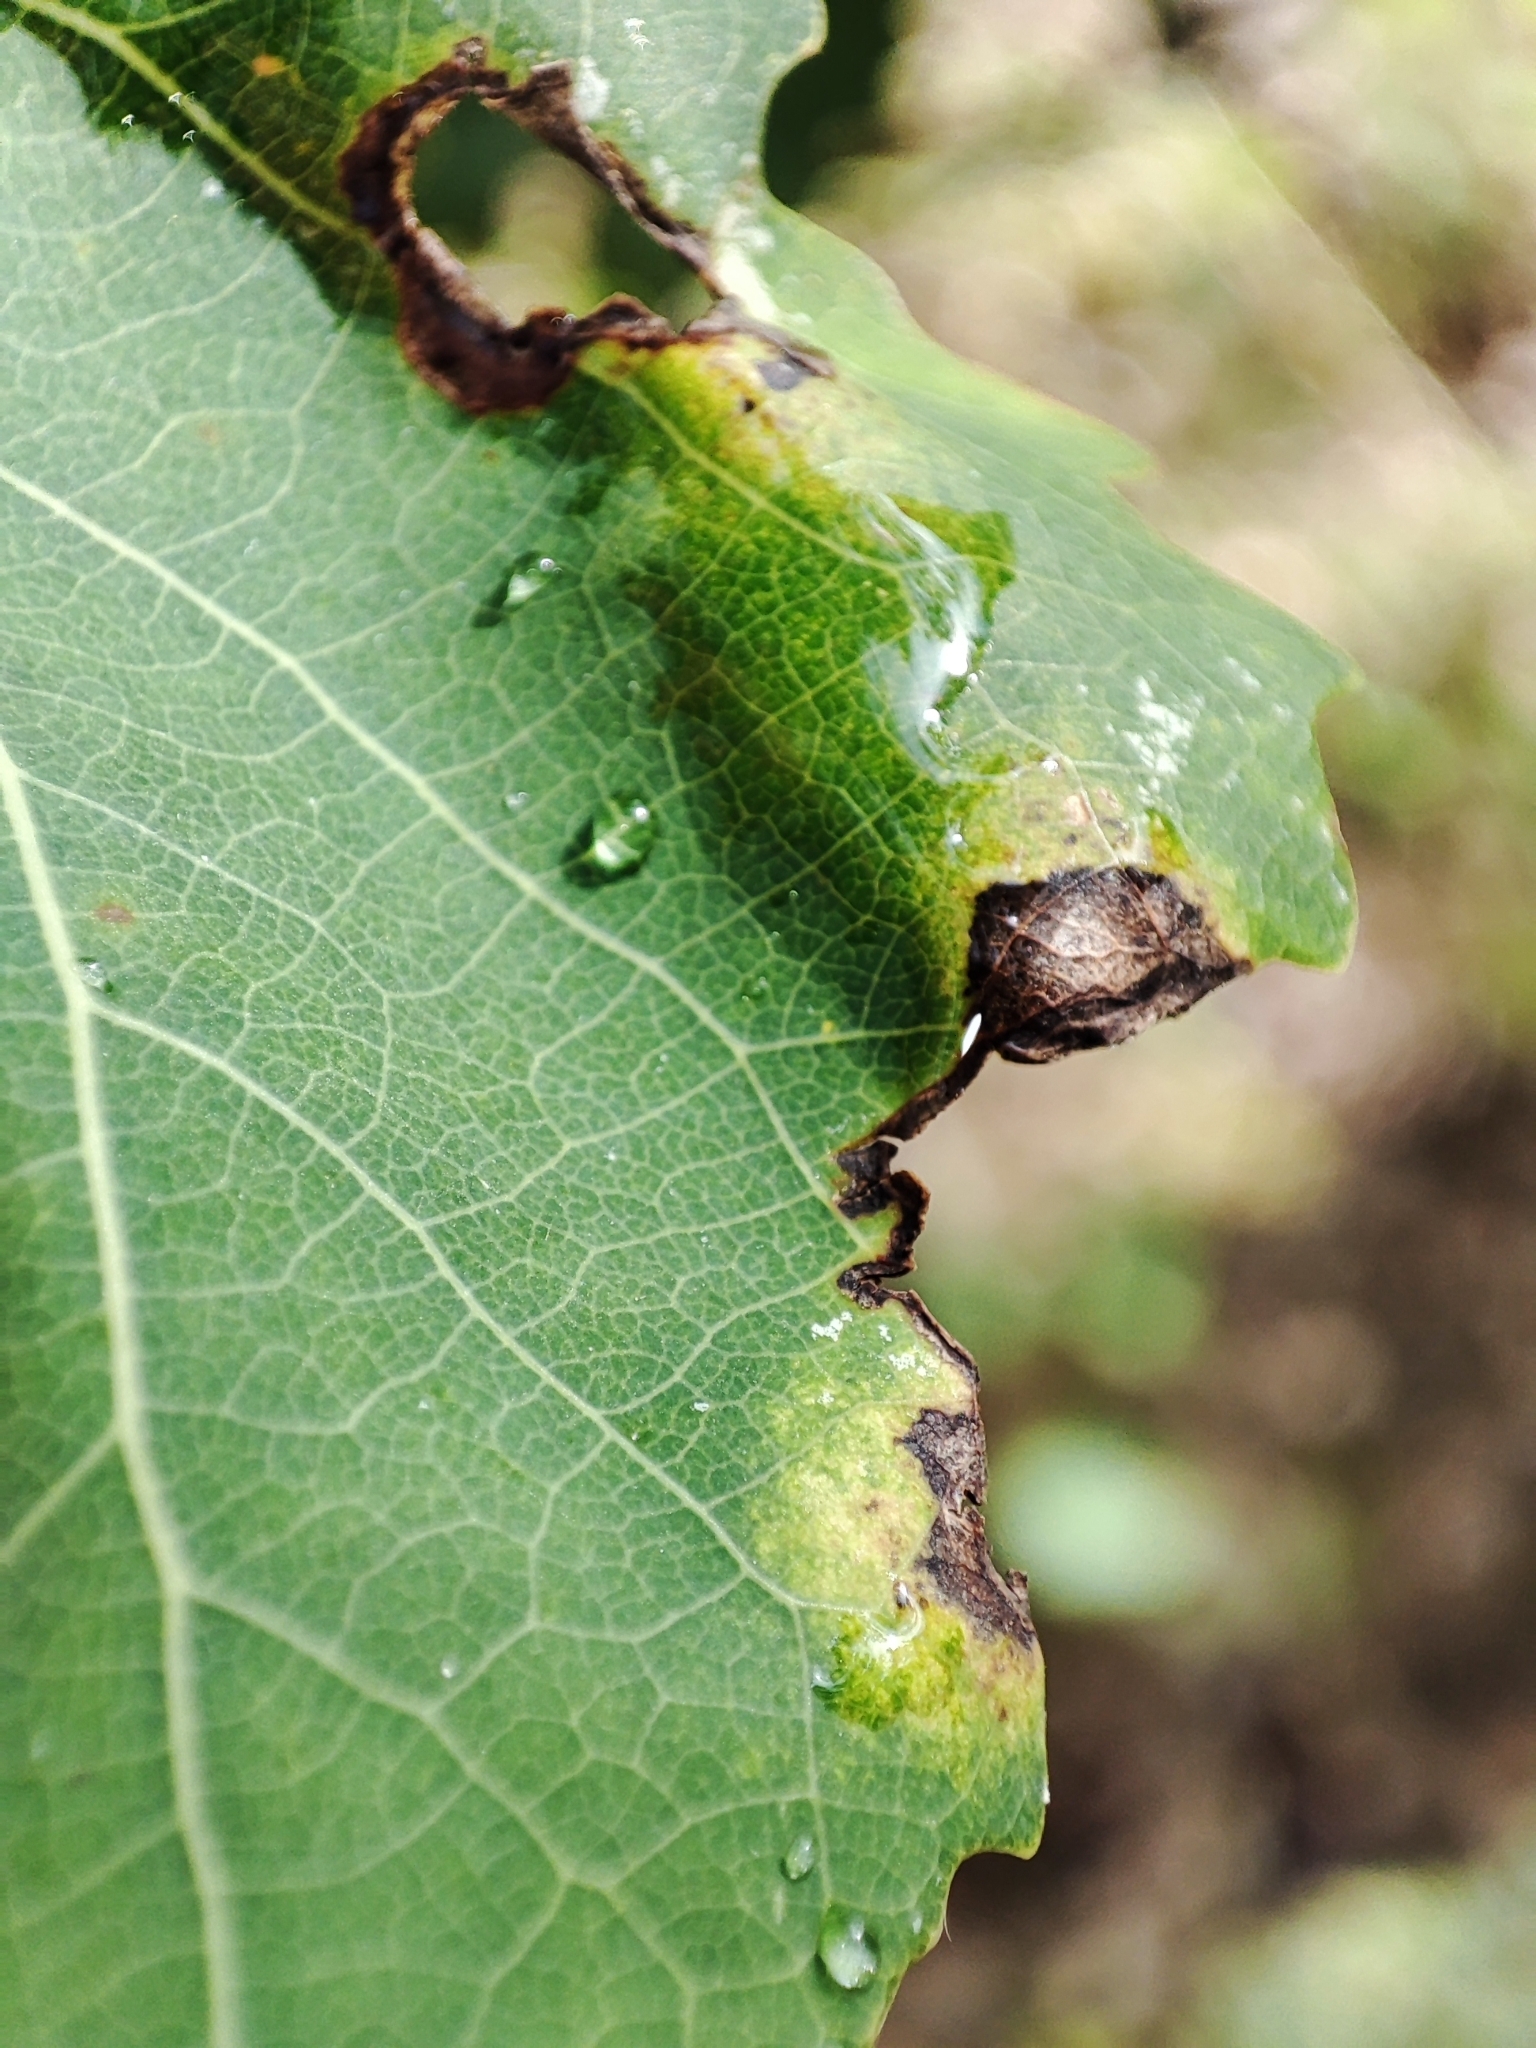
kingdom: Plantae
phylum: Tracheophyta
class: Magnoliopsida
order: Malpighiales
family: Salicaceae
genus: Populus
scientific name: Populus tremula
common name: European aspen
